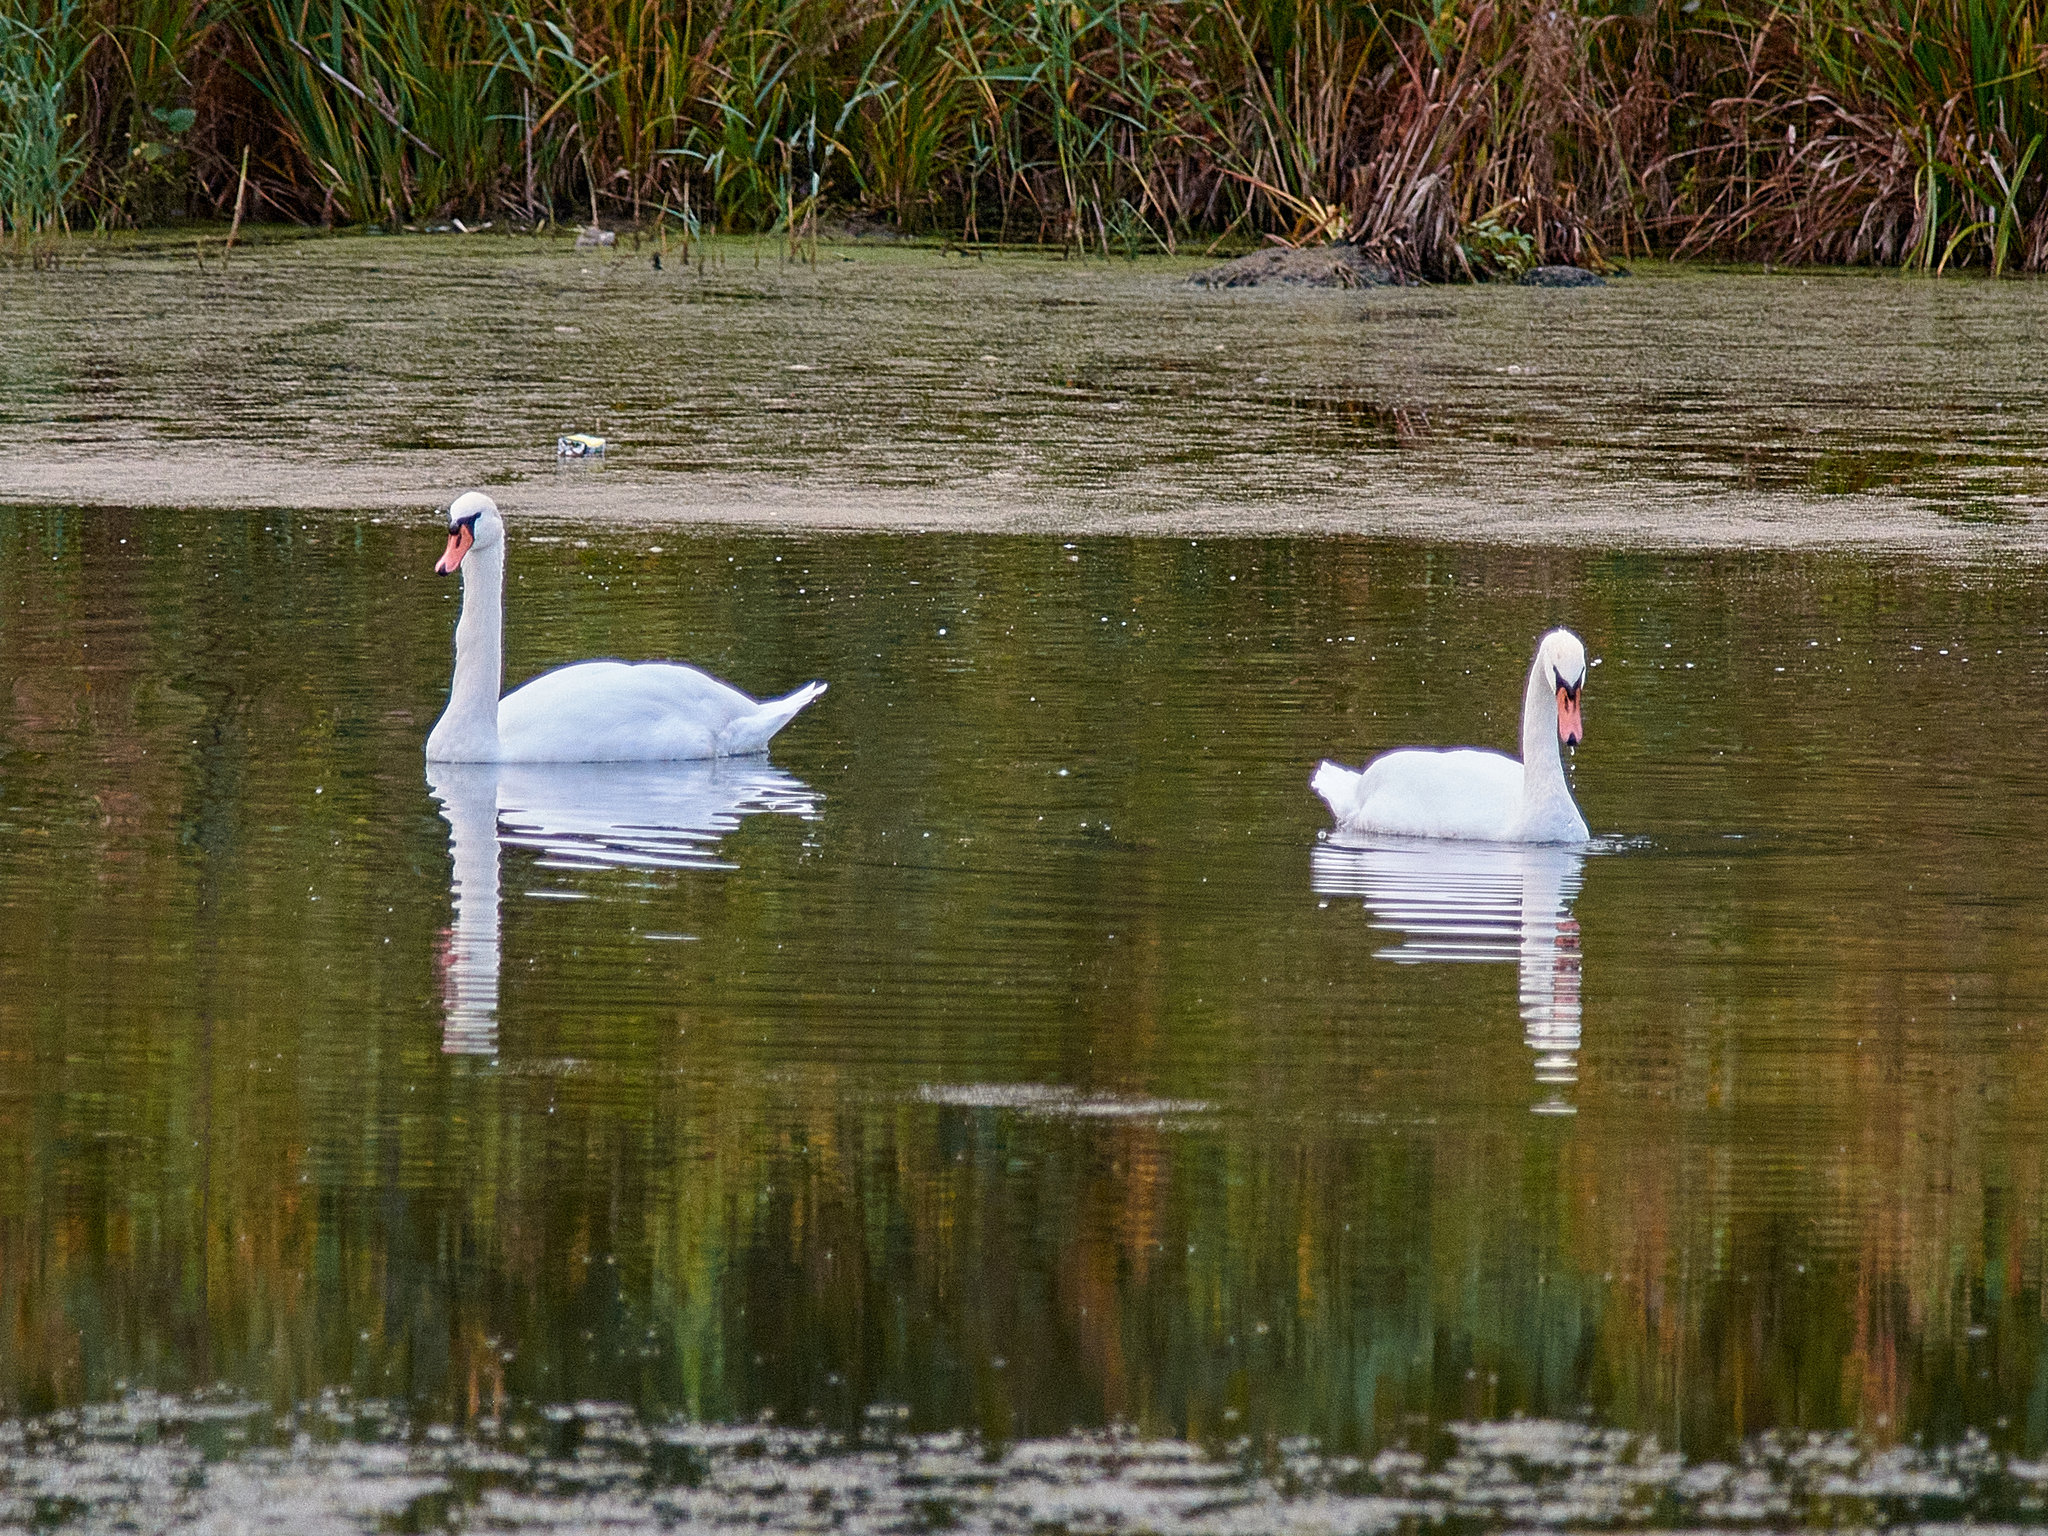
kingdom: Animalia
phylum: Chordata
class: Aves
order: Anseriformes
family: Anatidae
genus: Cygnus
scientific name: Cygnus olor
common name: Mute swan
